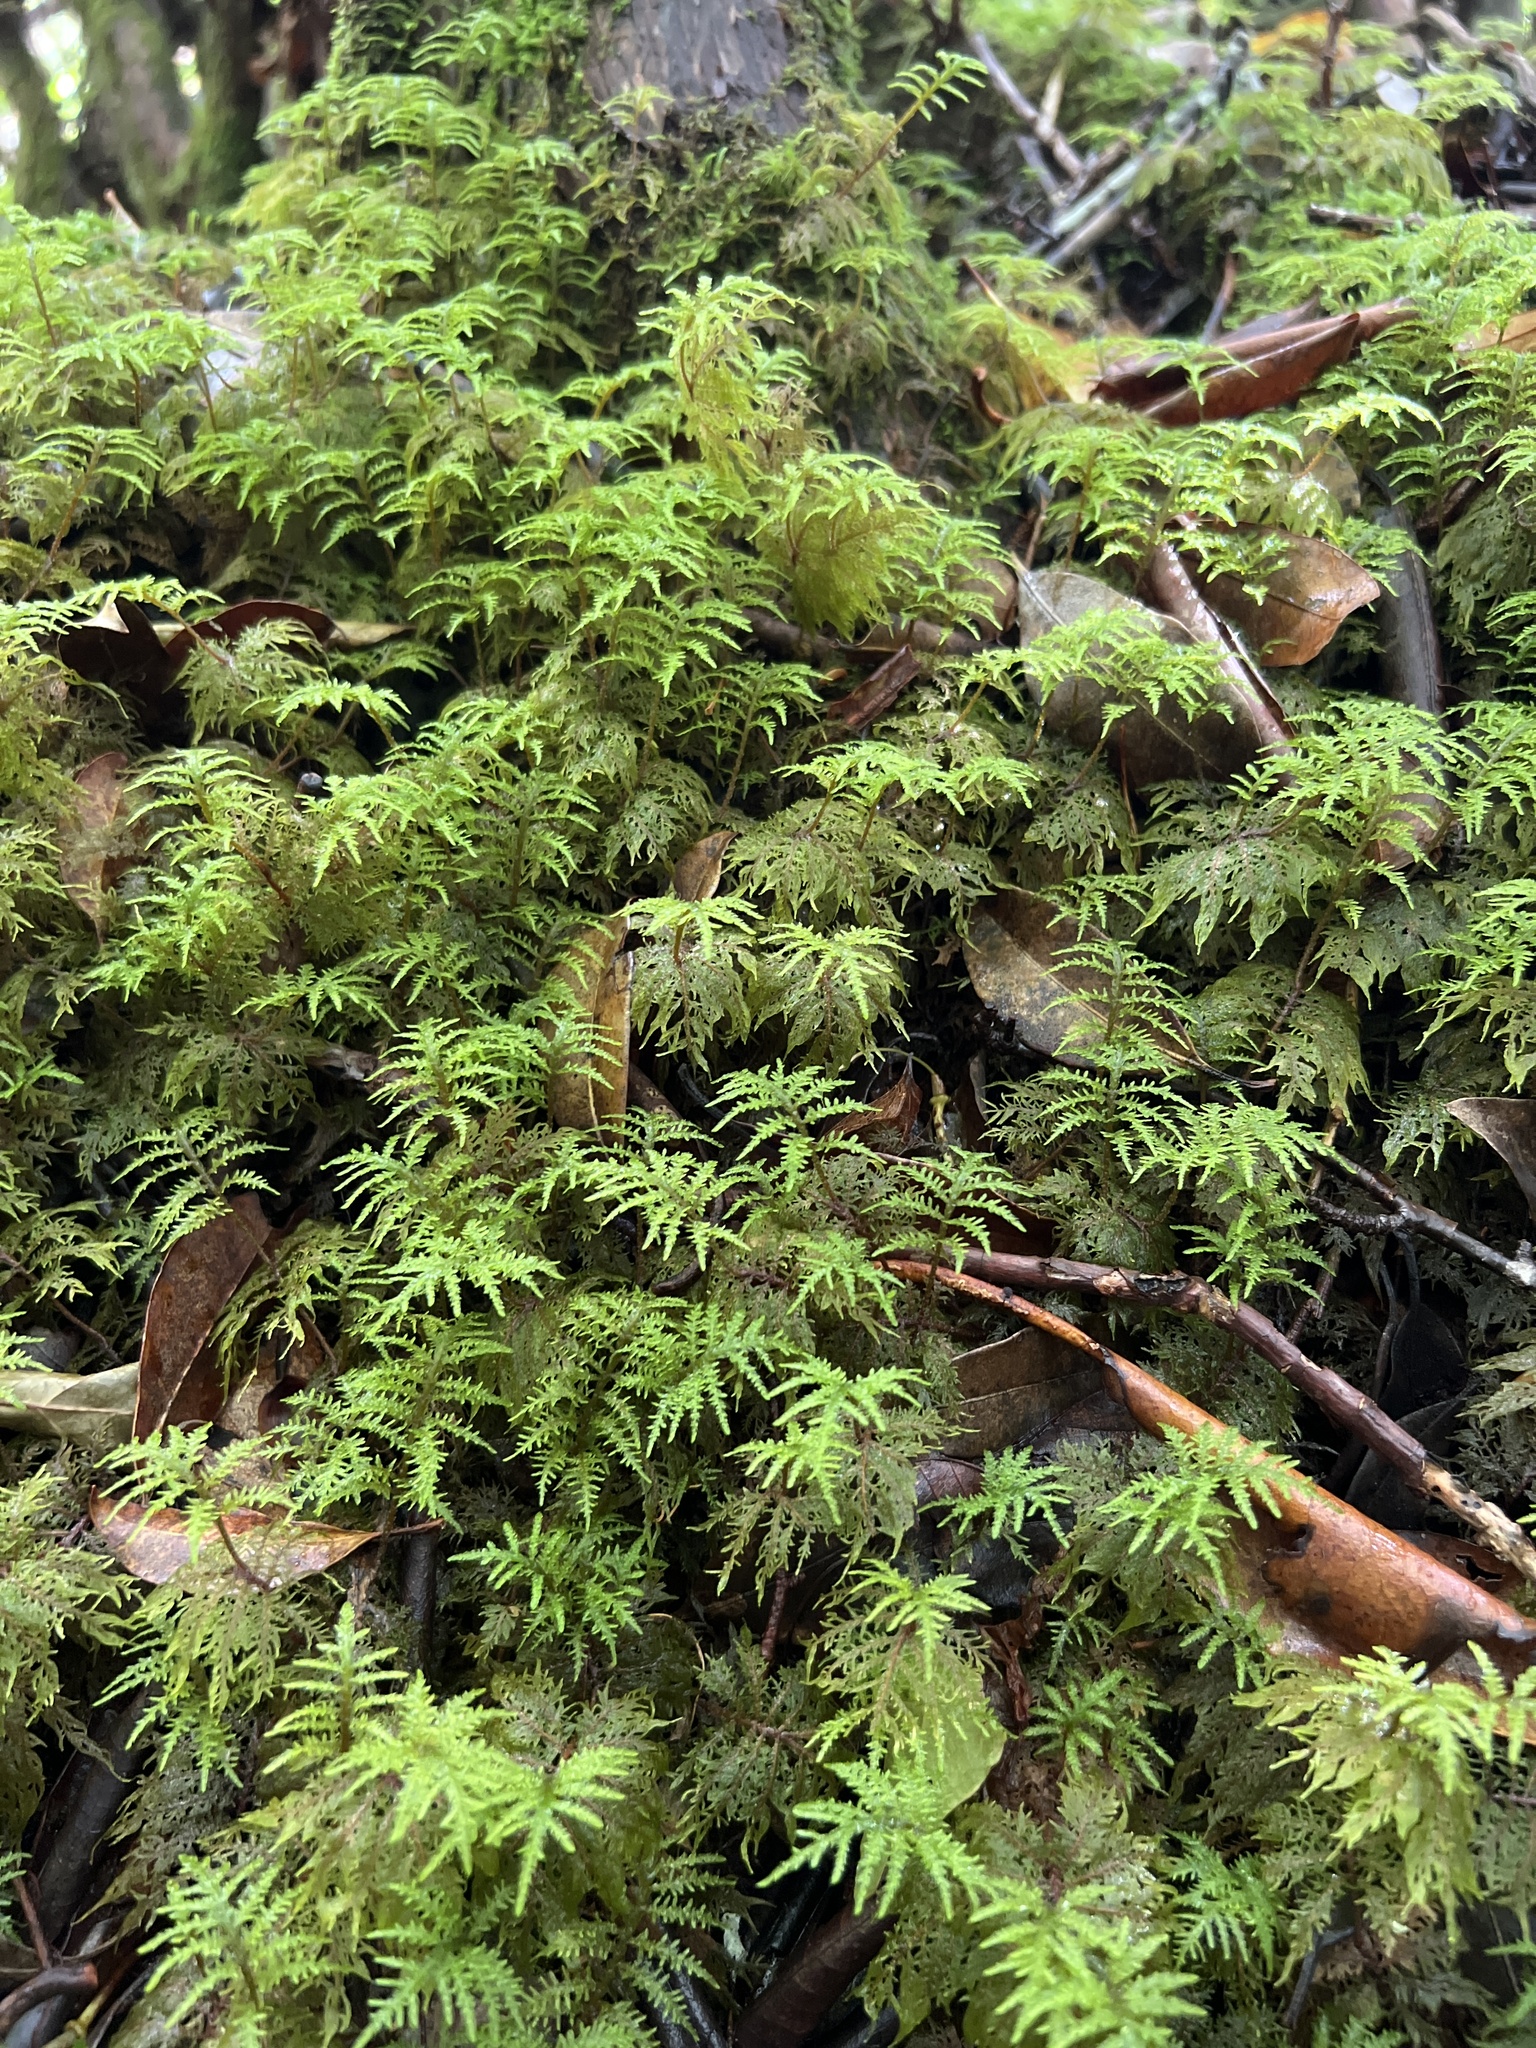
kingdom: Plantae
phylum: Bryophyta
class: Bryopsida
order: Hypnales
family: Hylocomiaceae
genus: Hylocomium
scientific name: Hylocomium splendens
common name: Stairstep moss
